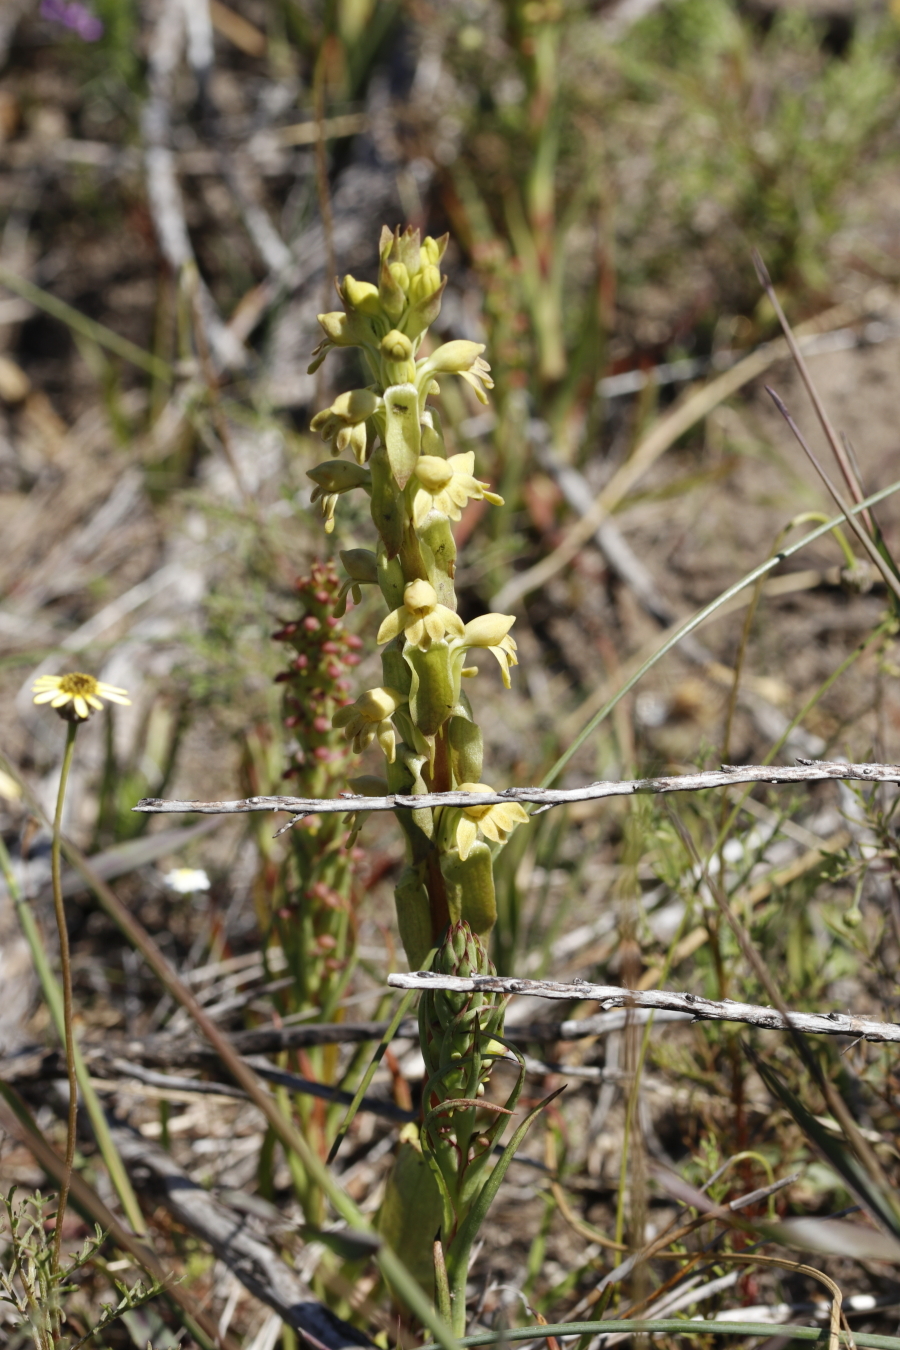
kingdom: Plantae
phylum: Tracheophyta
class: Liliopsida
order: Asparagales
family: Orchidaceae
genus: Satyrium
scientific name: Satyrium bicorne
